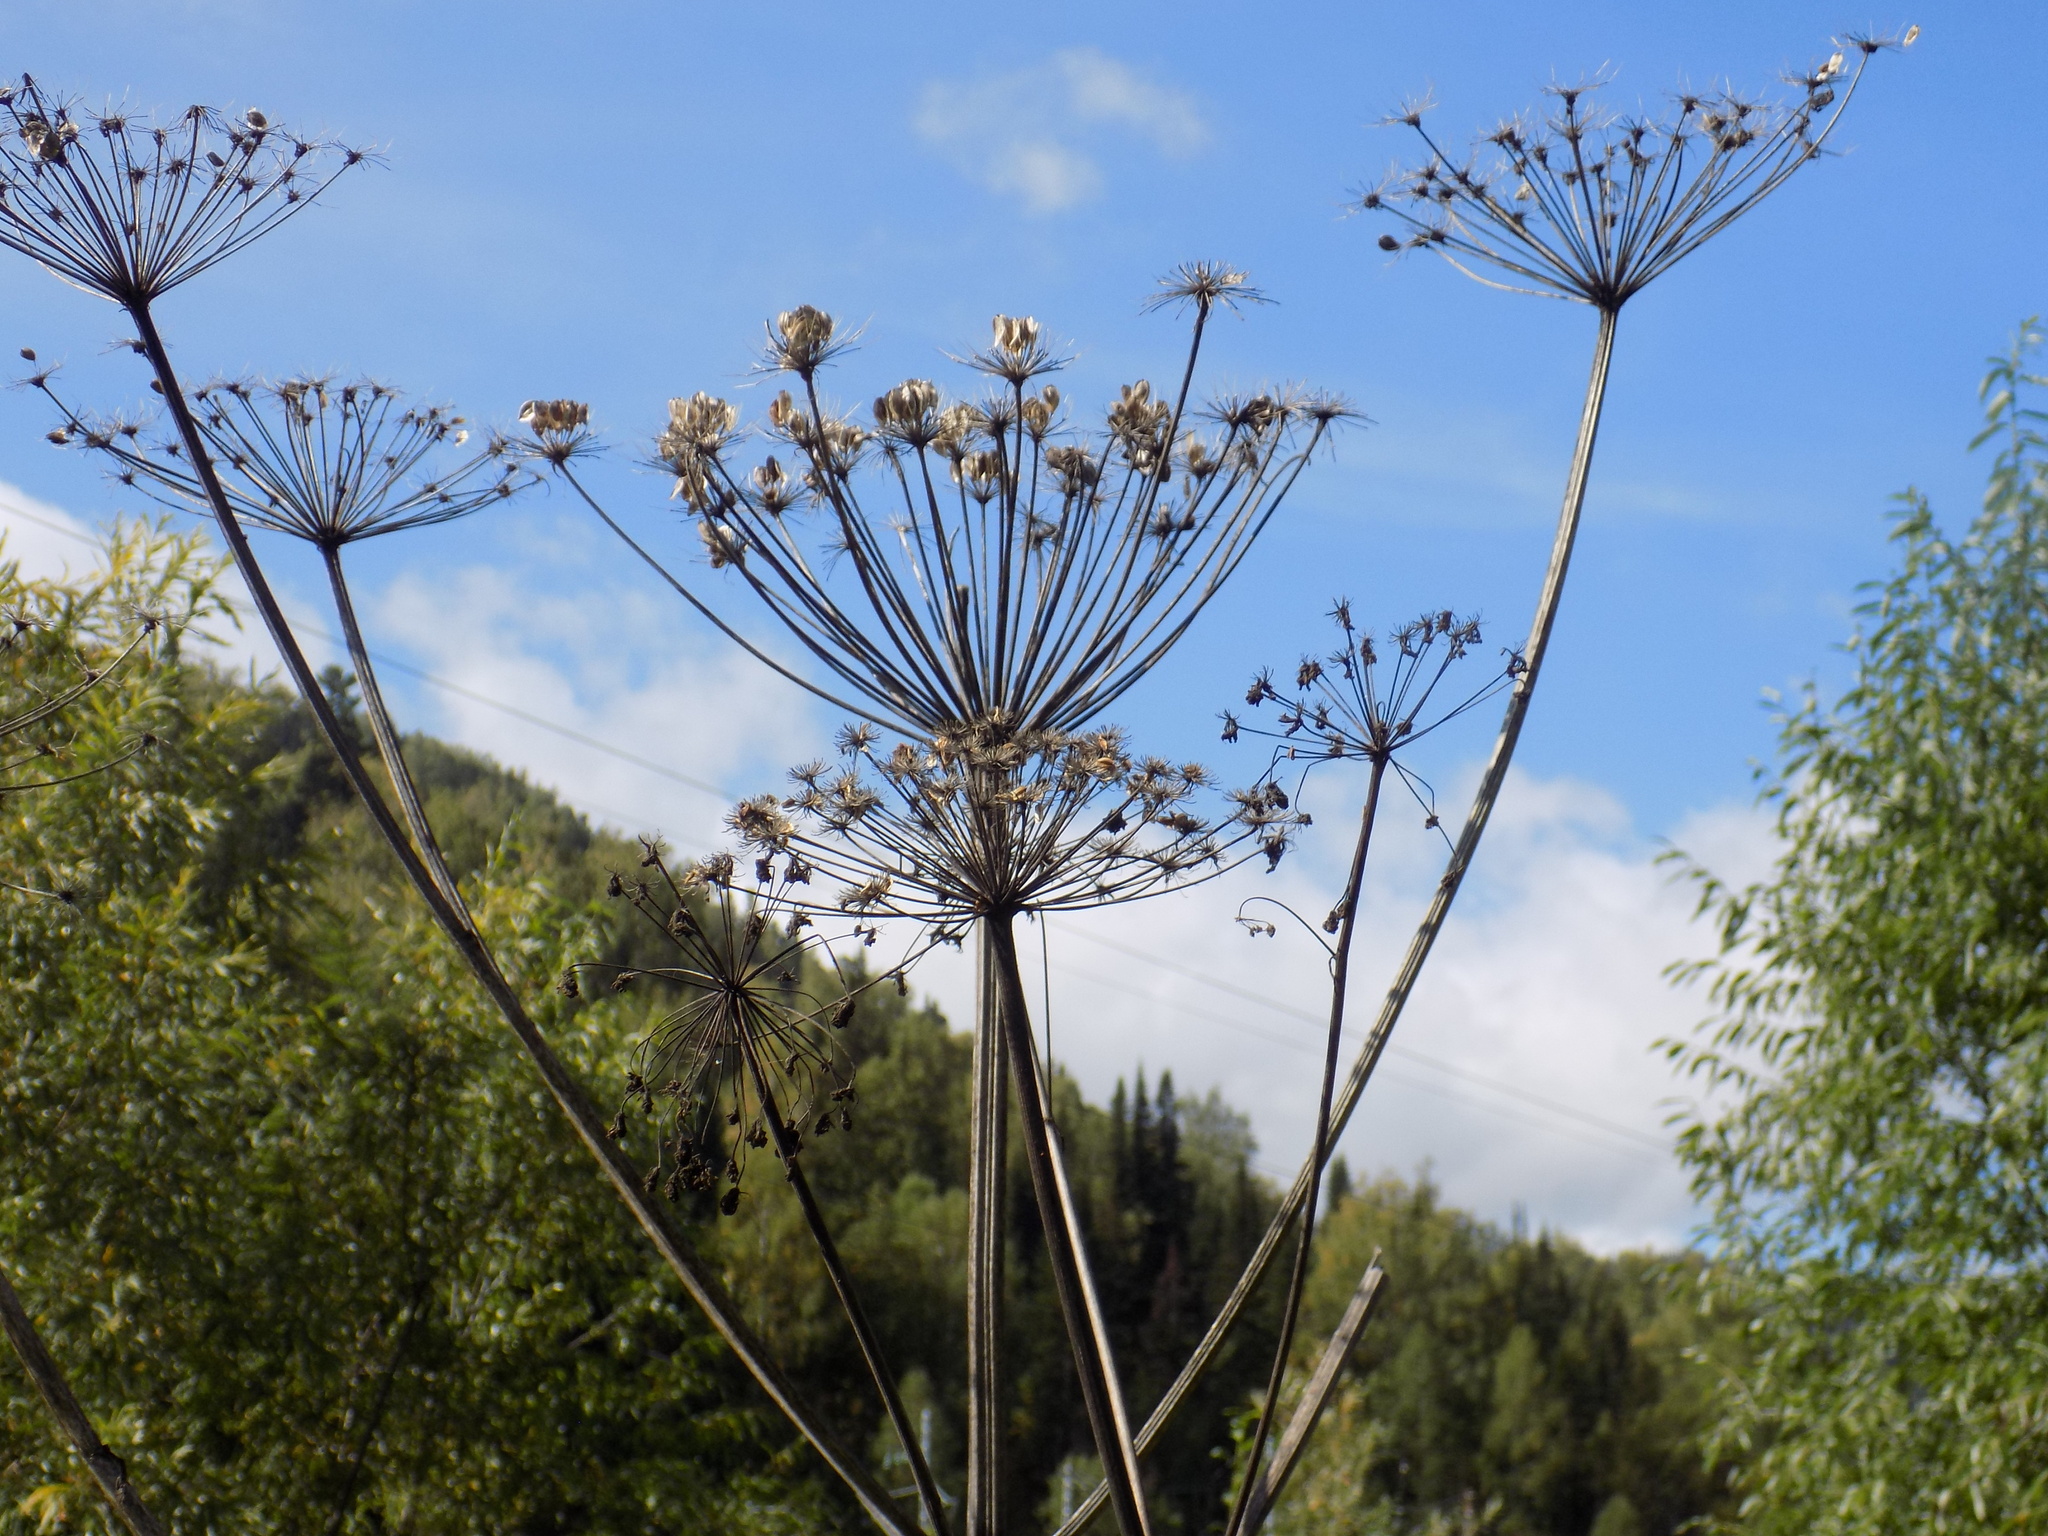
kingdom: Plantae
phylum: Tracheophyta
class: Magnoliopsida
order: Apiales
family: Apiaceae
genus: Heracleum
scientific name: Heracleum dissectum
